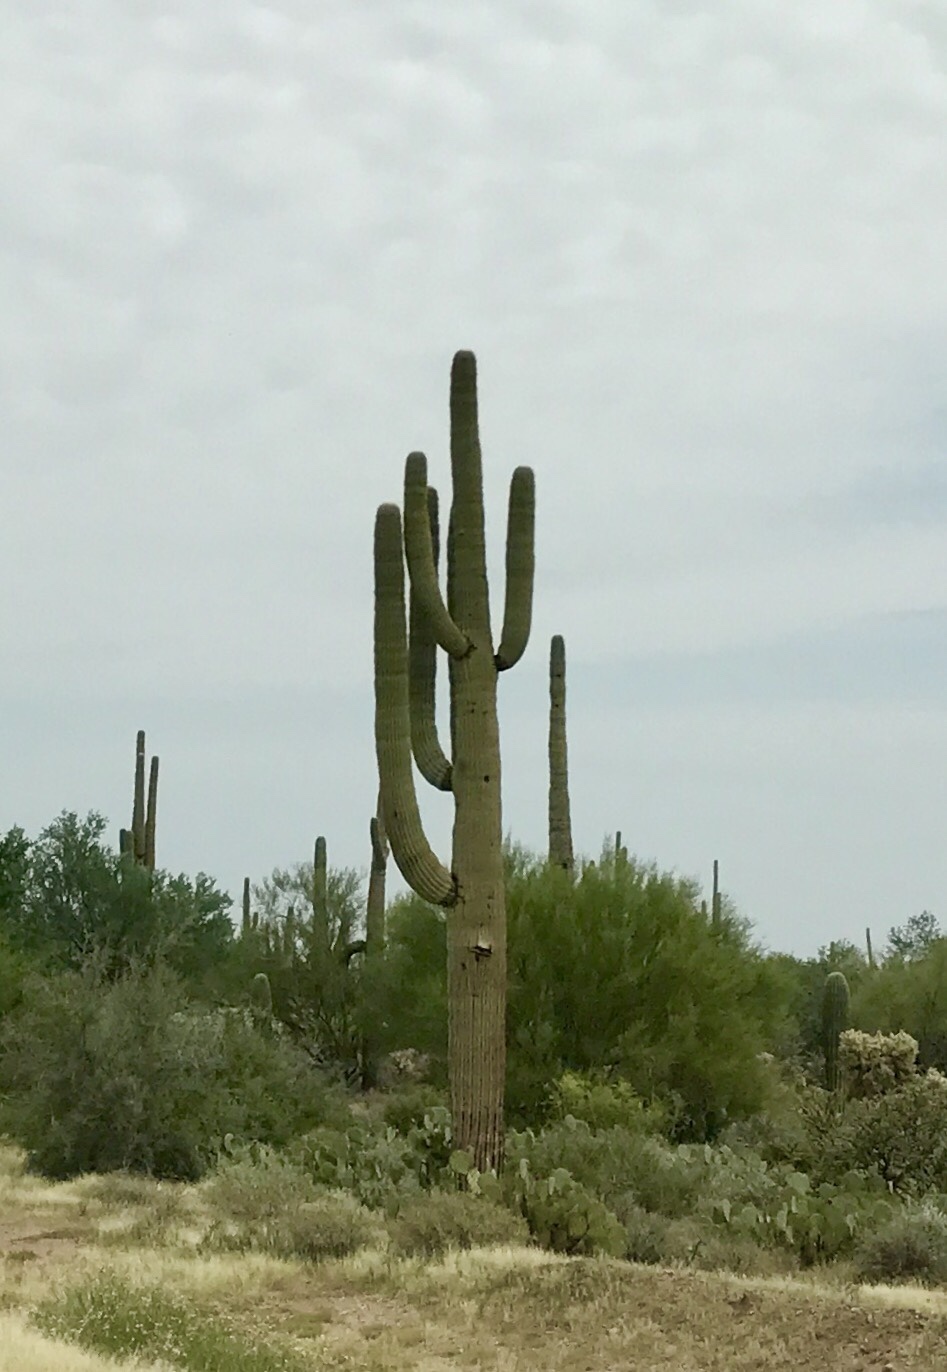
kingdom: Plantae
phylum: Tracheophyta
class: Magnoliopsida
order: Caryophyllales
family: Cactaceae
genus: Carnegiea
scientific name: Carnegiea gigantea
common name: Saguaro
